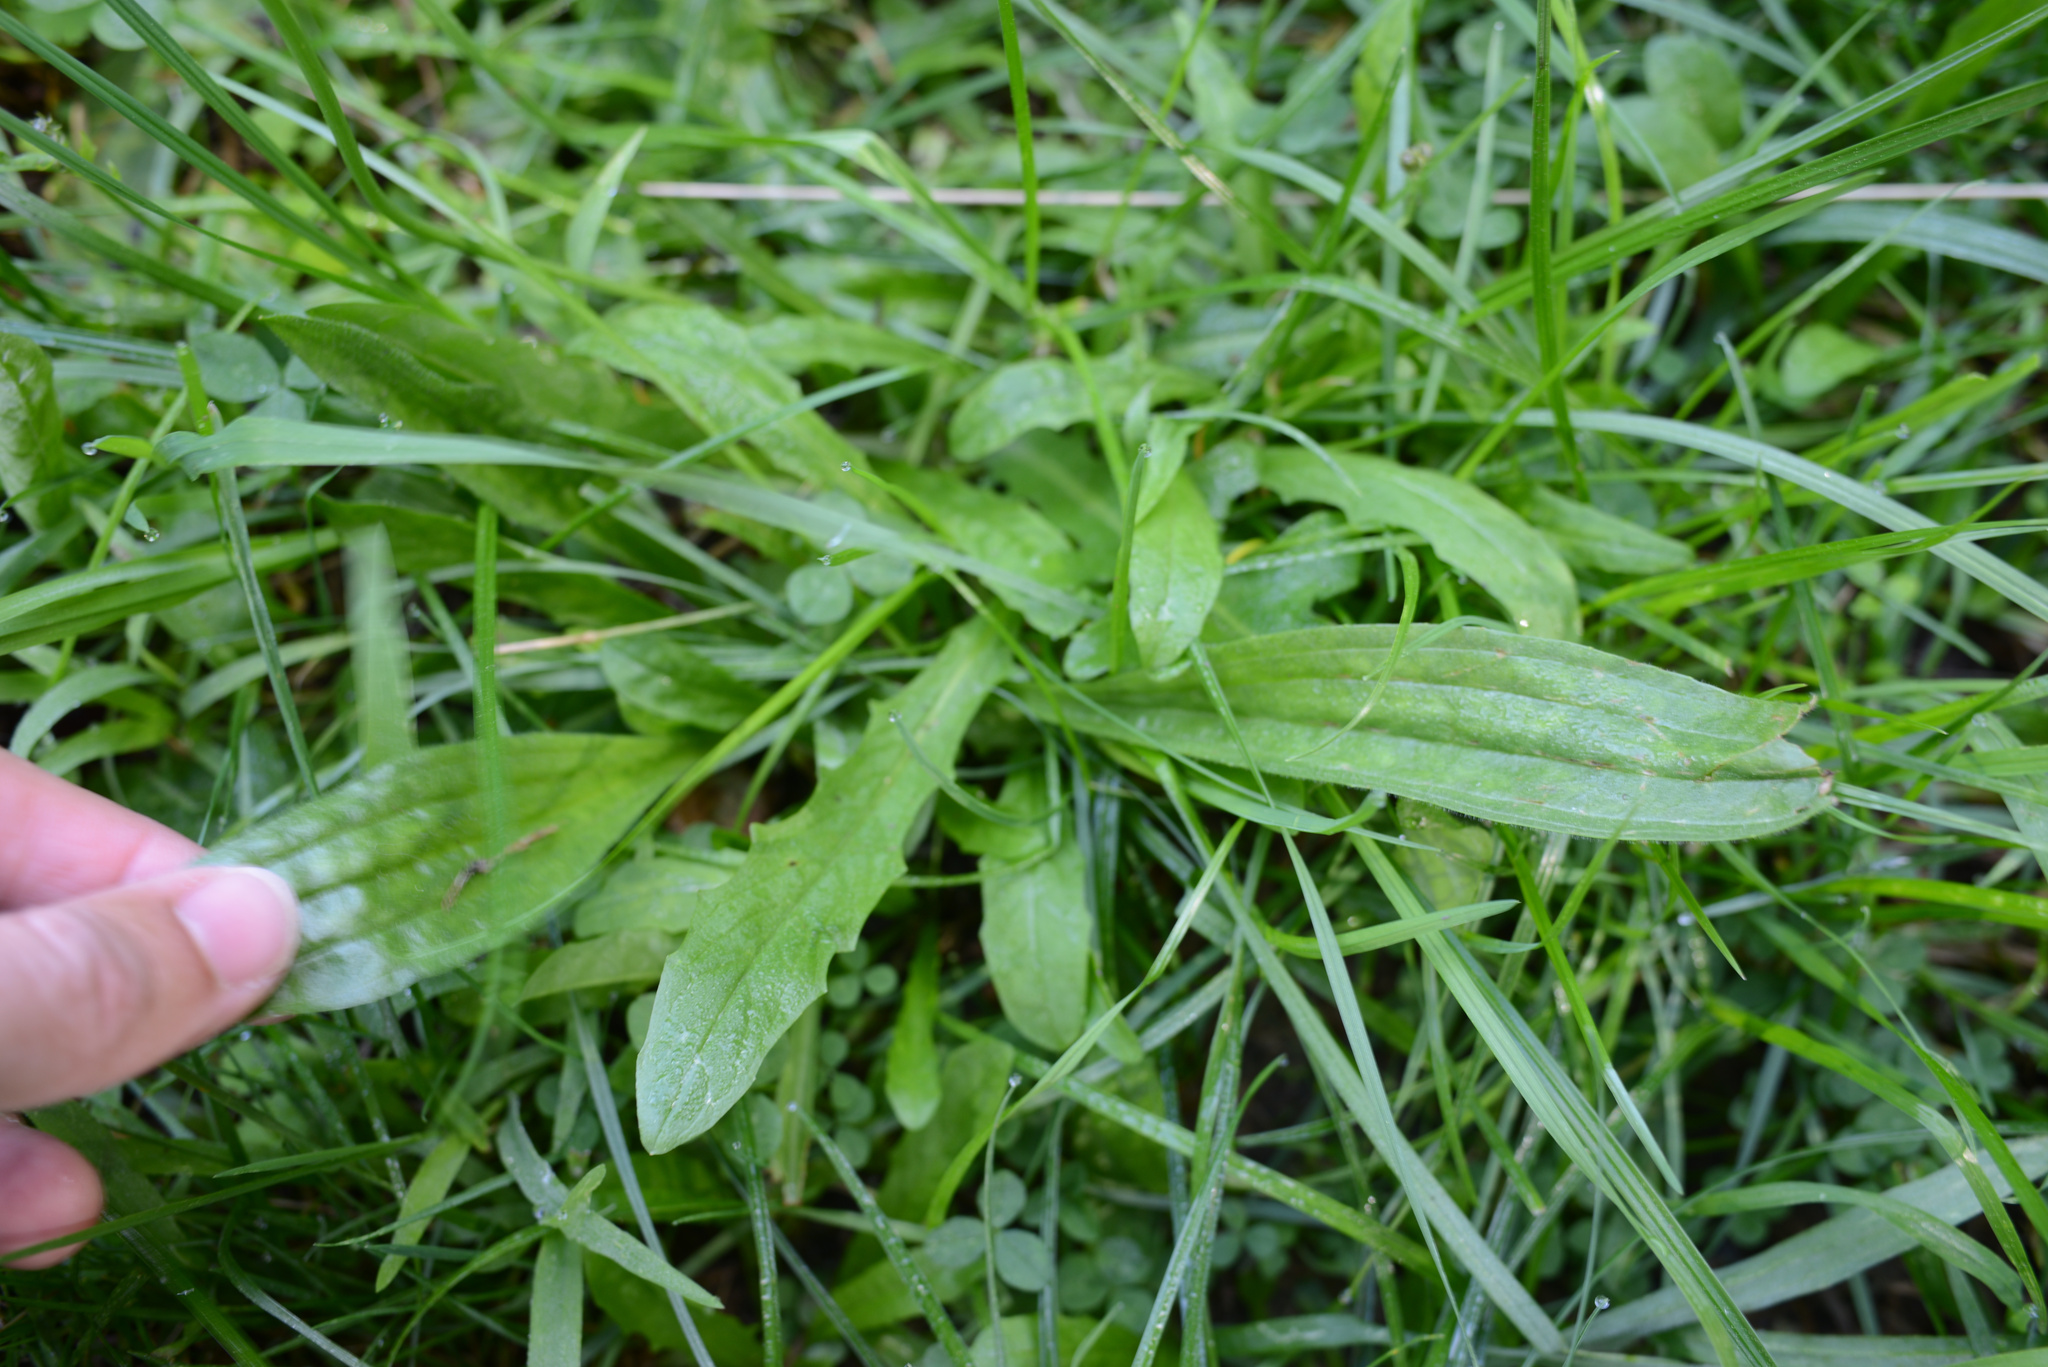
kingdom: Plantae
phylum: Tracheophyta
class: Magnoliopsida
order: Lamiales
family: Plantaginaceae
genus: Plantago
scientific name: Plantago lanceolata
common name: Ribwort plantain
